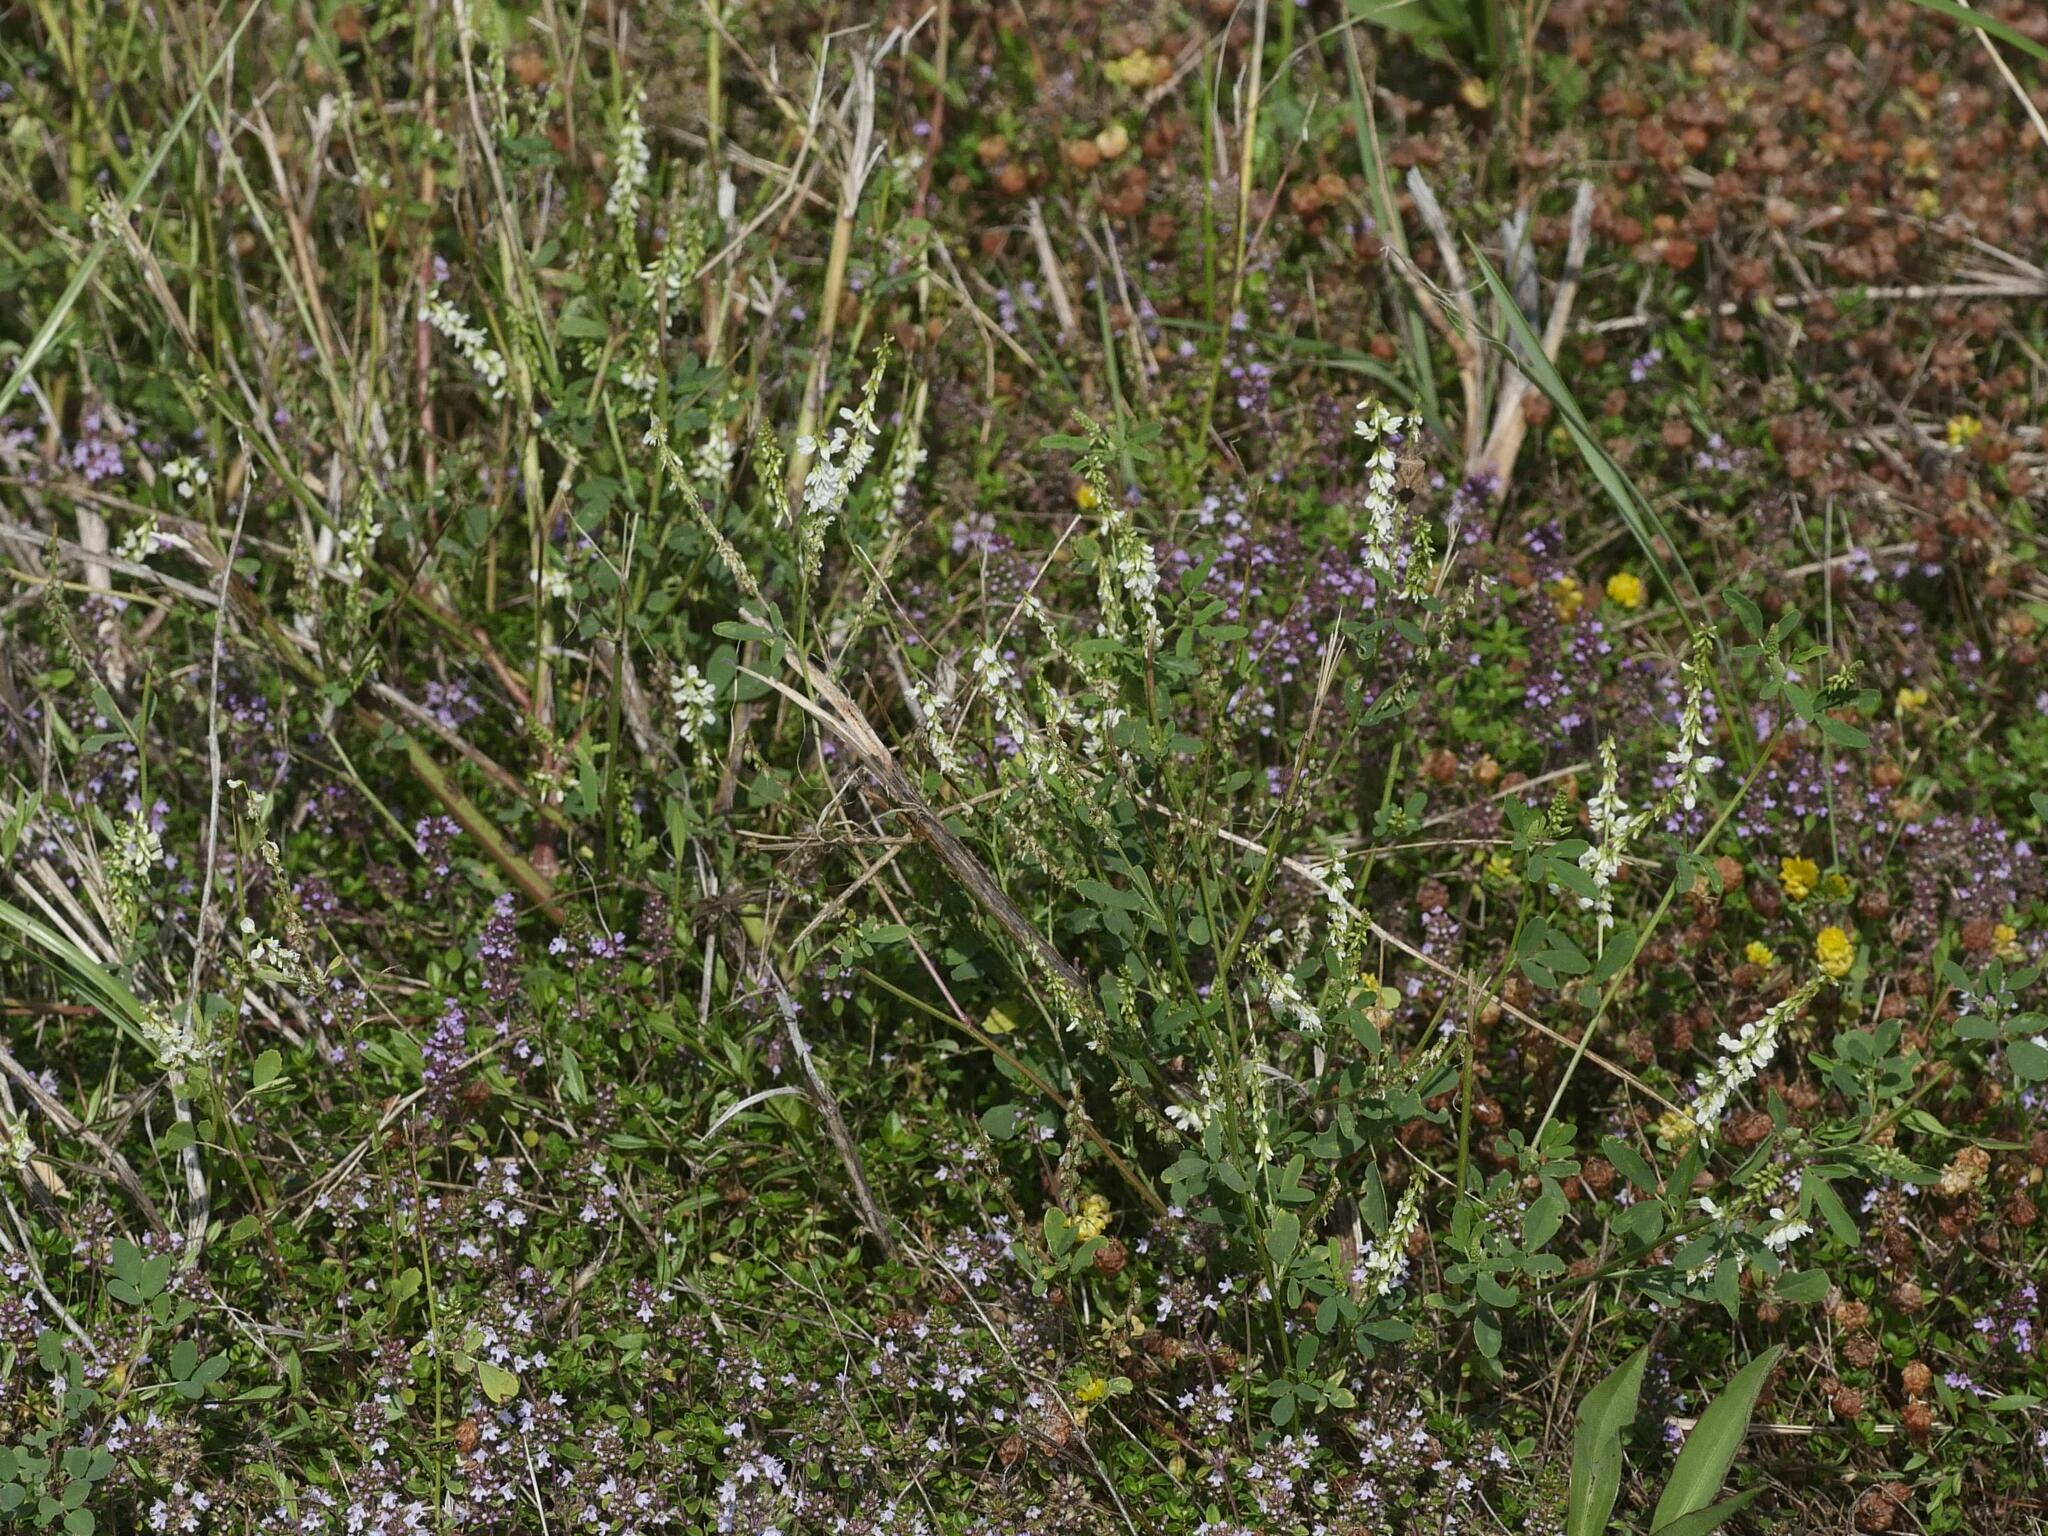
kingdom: Plantae
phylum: Tracheophyta
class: Magnoliopsida
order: Fabales
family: Fabaceae
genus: Melilotus
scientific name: Melilotus albus
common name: White melilot
